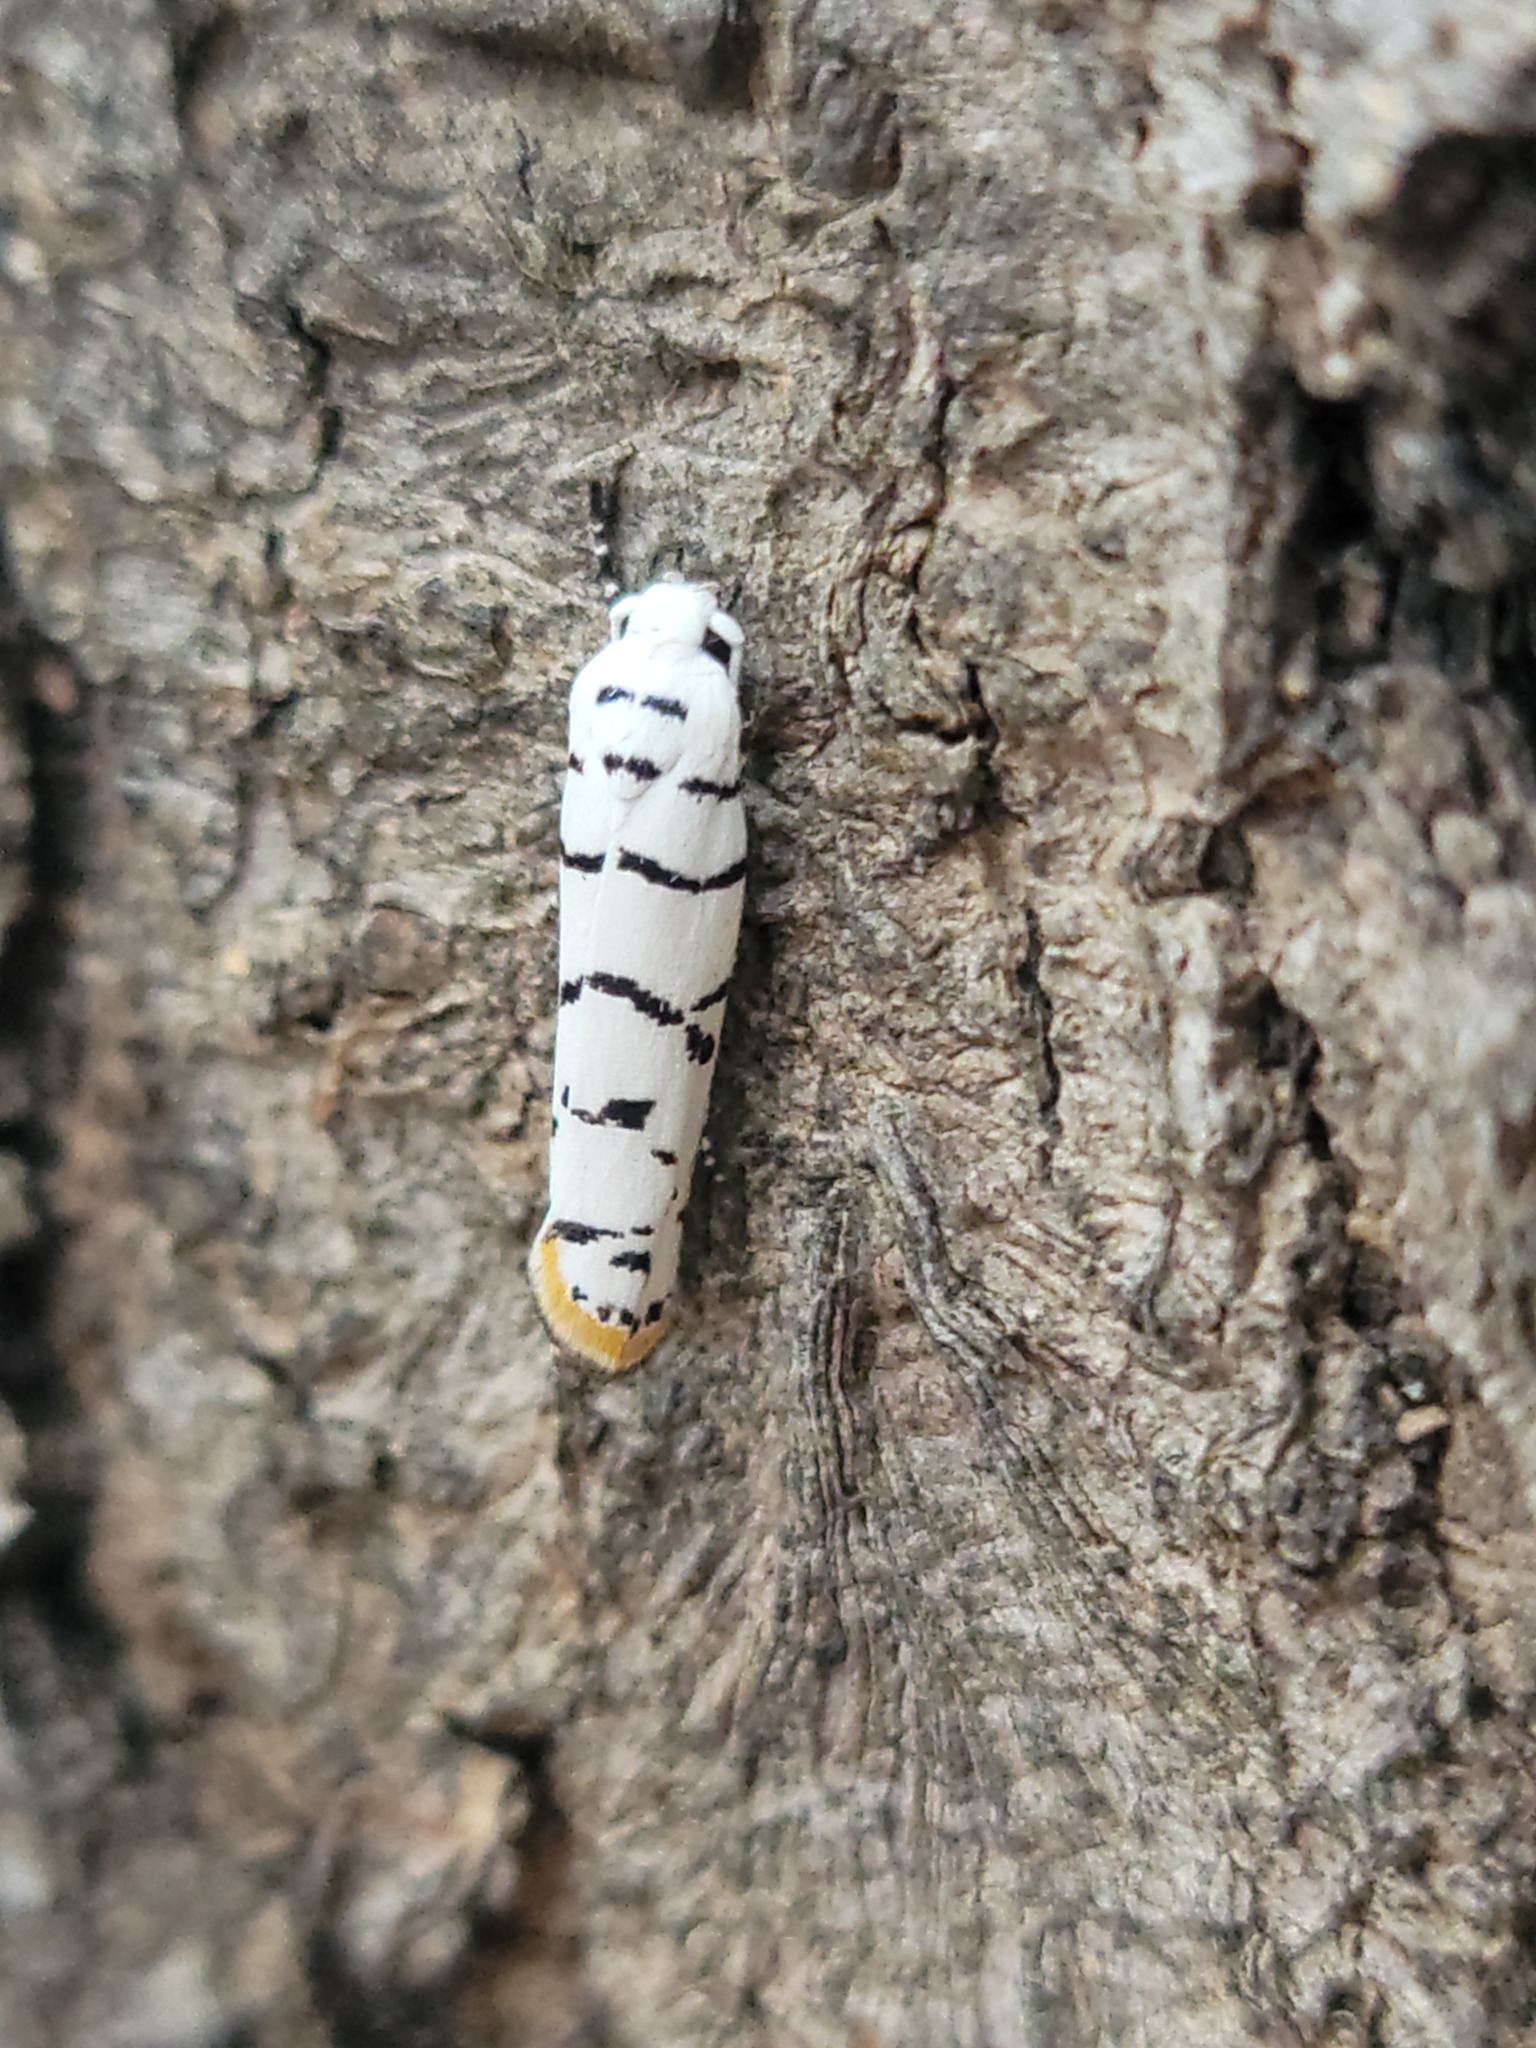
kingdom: Animalia
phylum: Arthropoda
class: Insecta
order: Lepidoptera
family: Ethmiidae
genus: Ethmia
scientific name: Ethmia delliella
